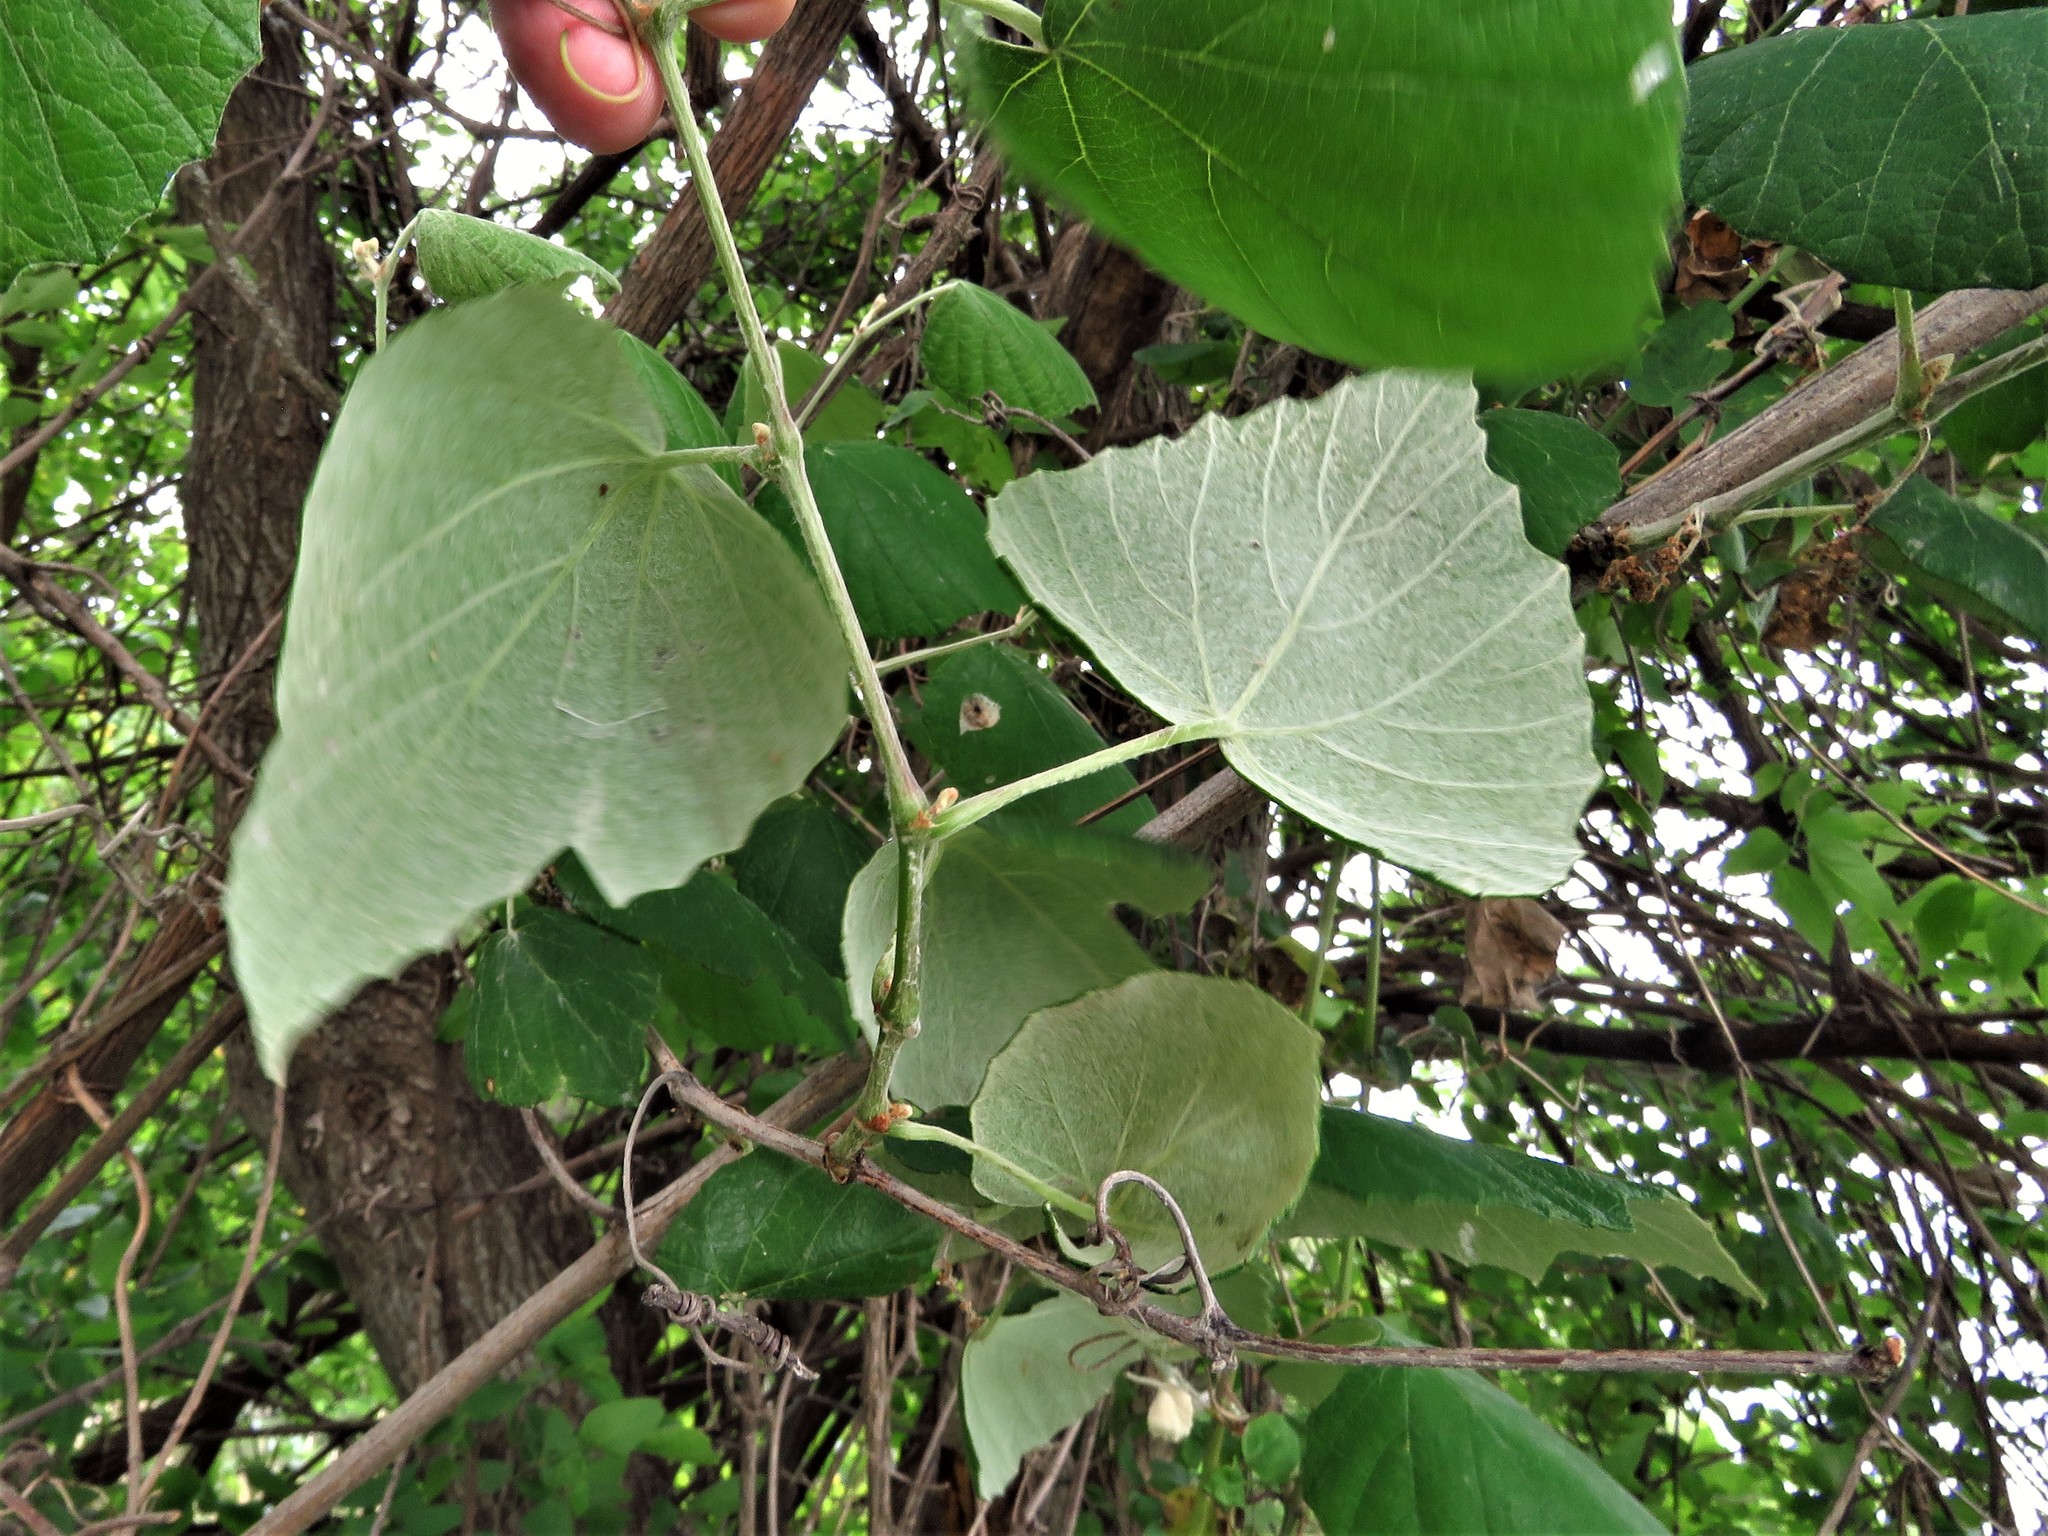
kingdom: Plantae
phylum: Tracheophyta
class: Magnoliopsida
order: Vitales
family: Vitaceae
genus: Vitis
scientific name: Vitis mustangensis
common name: Mustang grape
